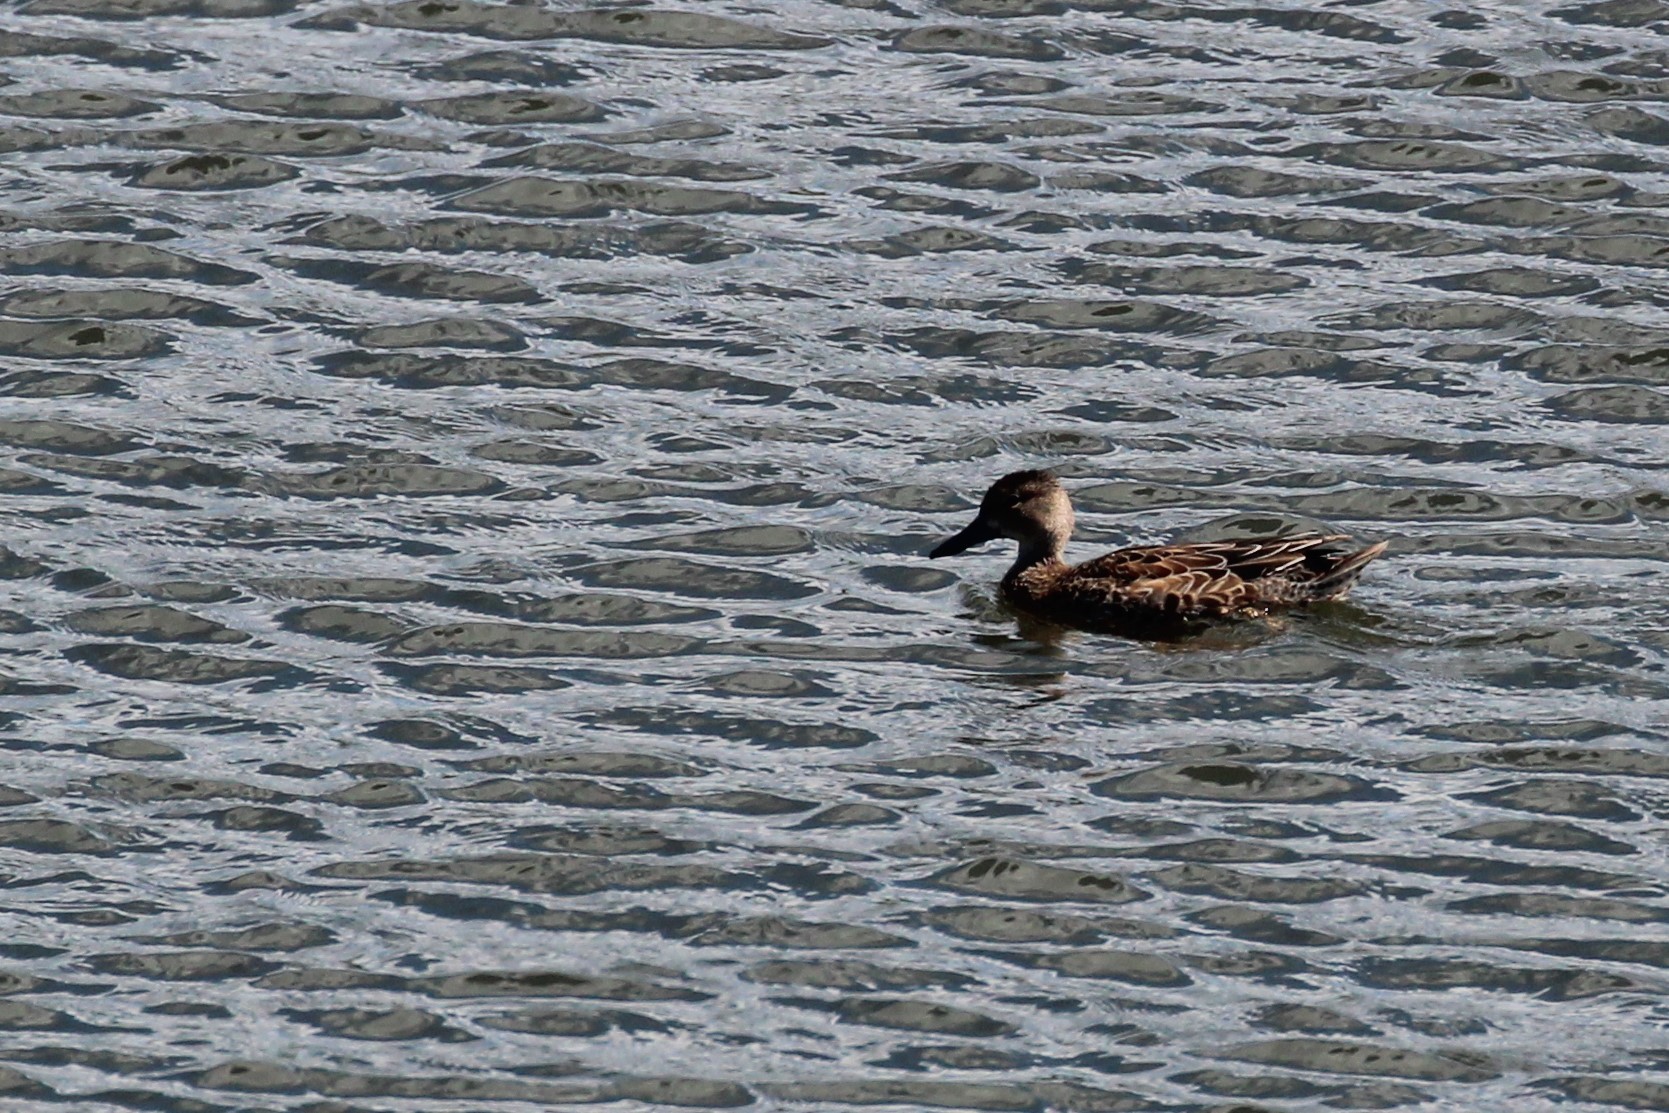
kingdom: Animalia
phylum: Chordata
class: Aves
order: Anseriformes
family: Anatidae
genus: Spatula
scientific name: Spatula discors
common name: Blue-winged teal
